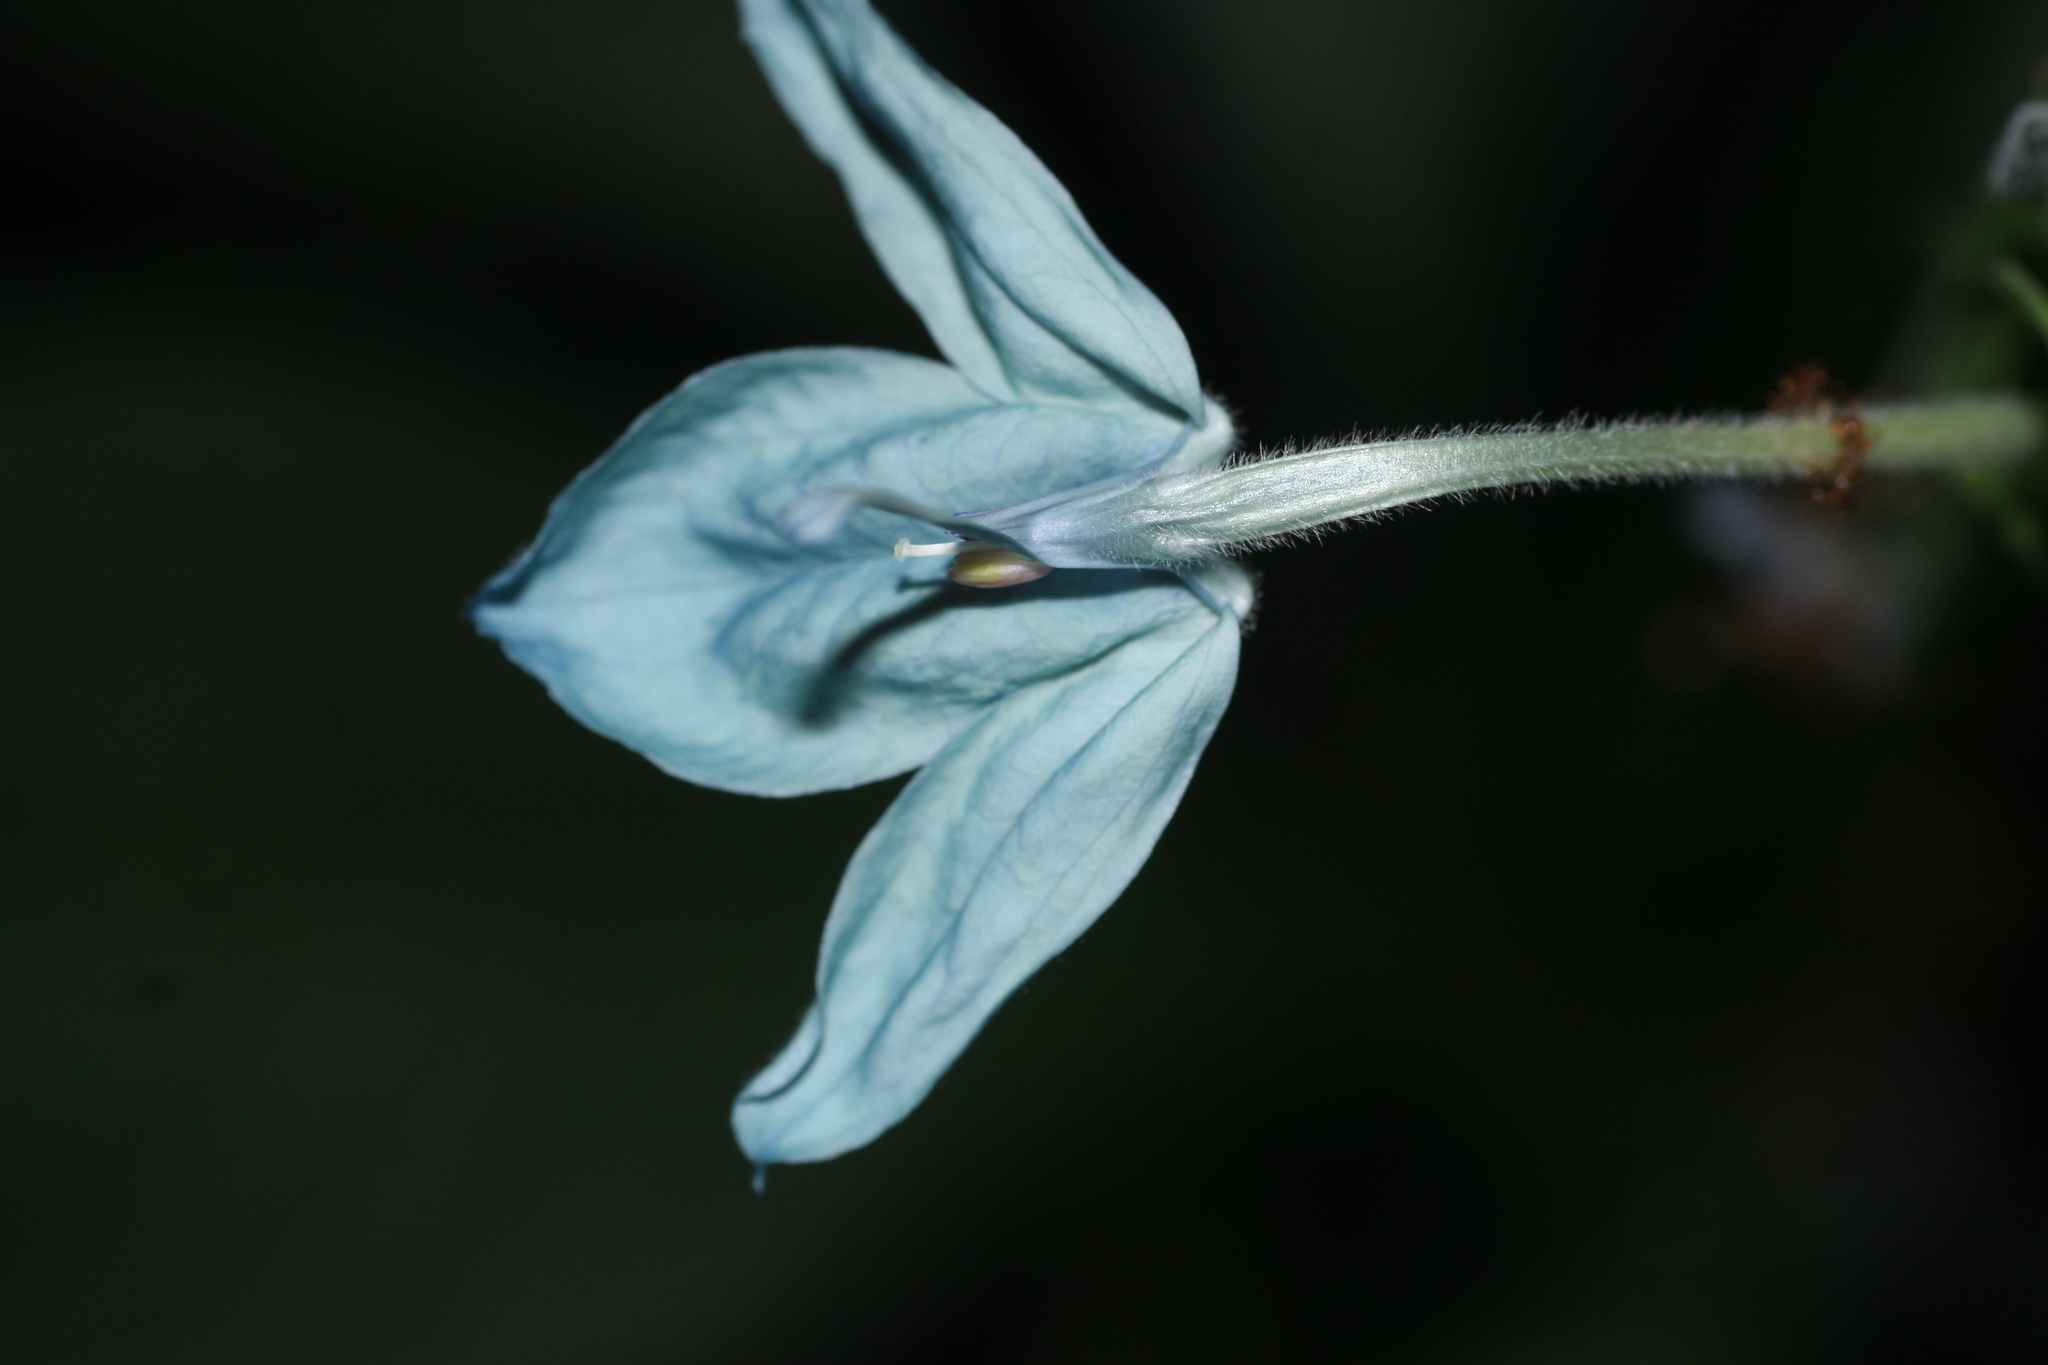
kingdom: Plantae
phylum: Tracheophyta
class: Magnoliopsida
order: Lamiales
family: Acanthaceae
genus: Ecbolium
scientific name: Ecbolium viride
